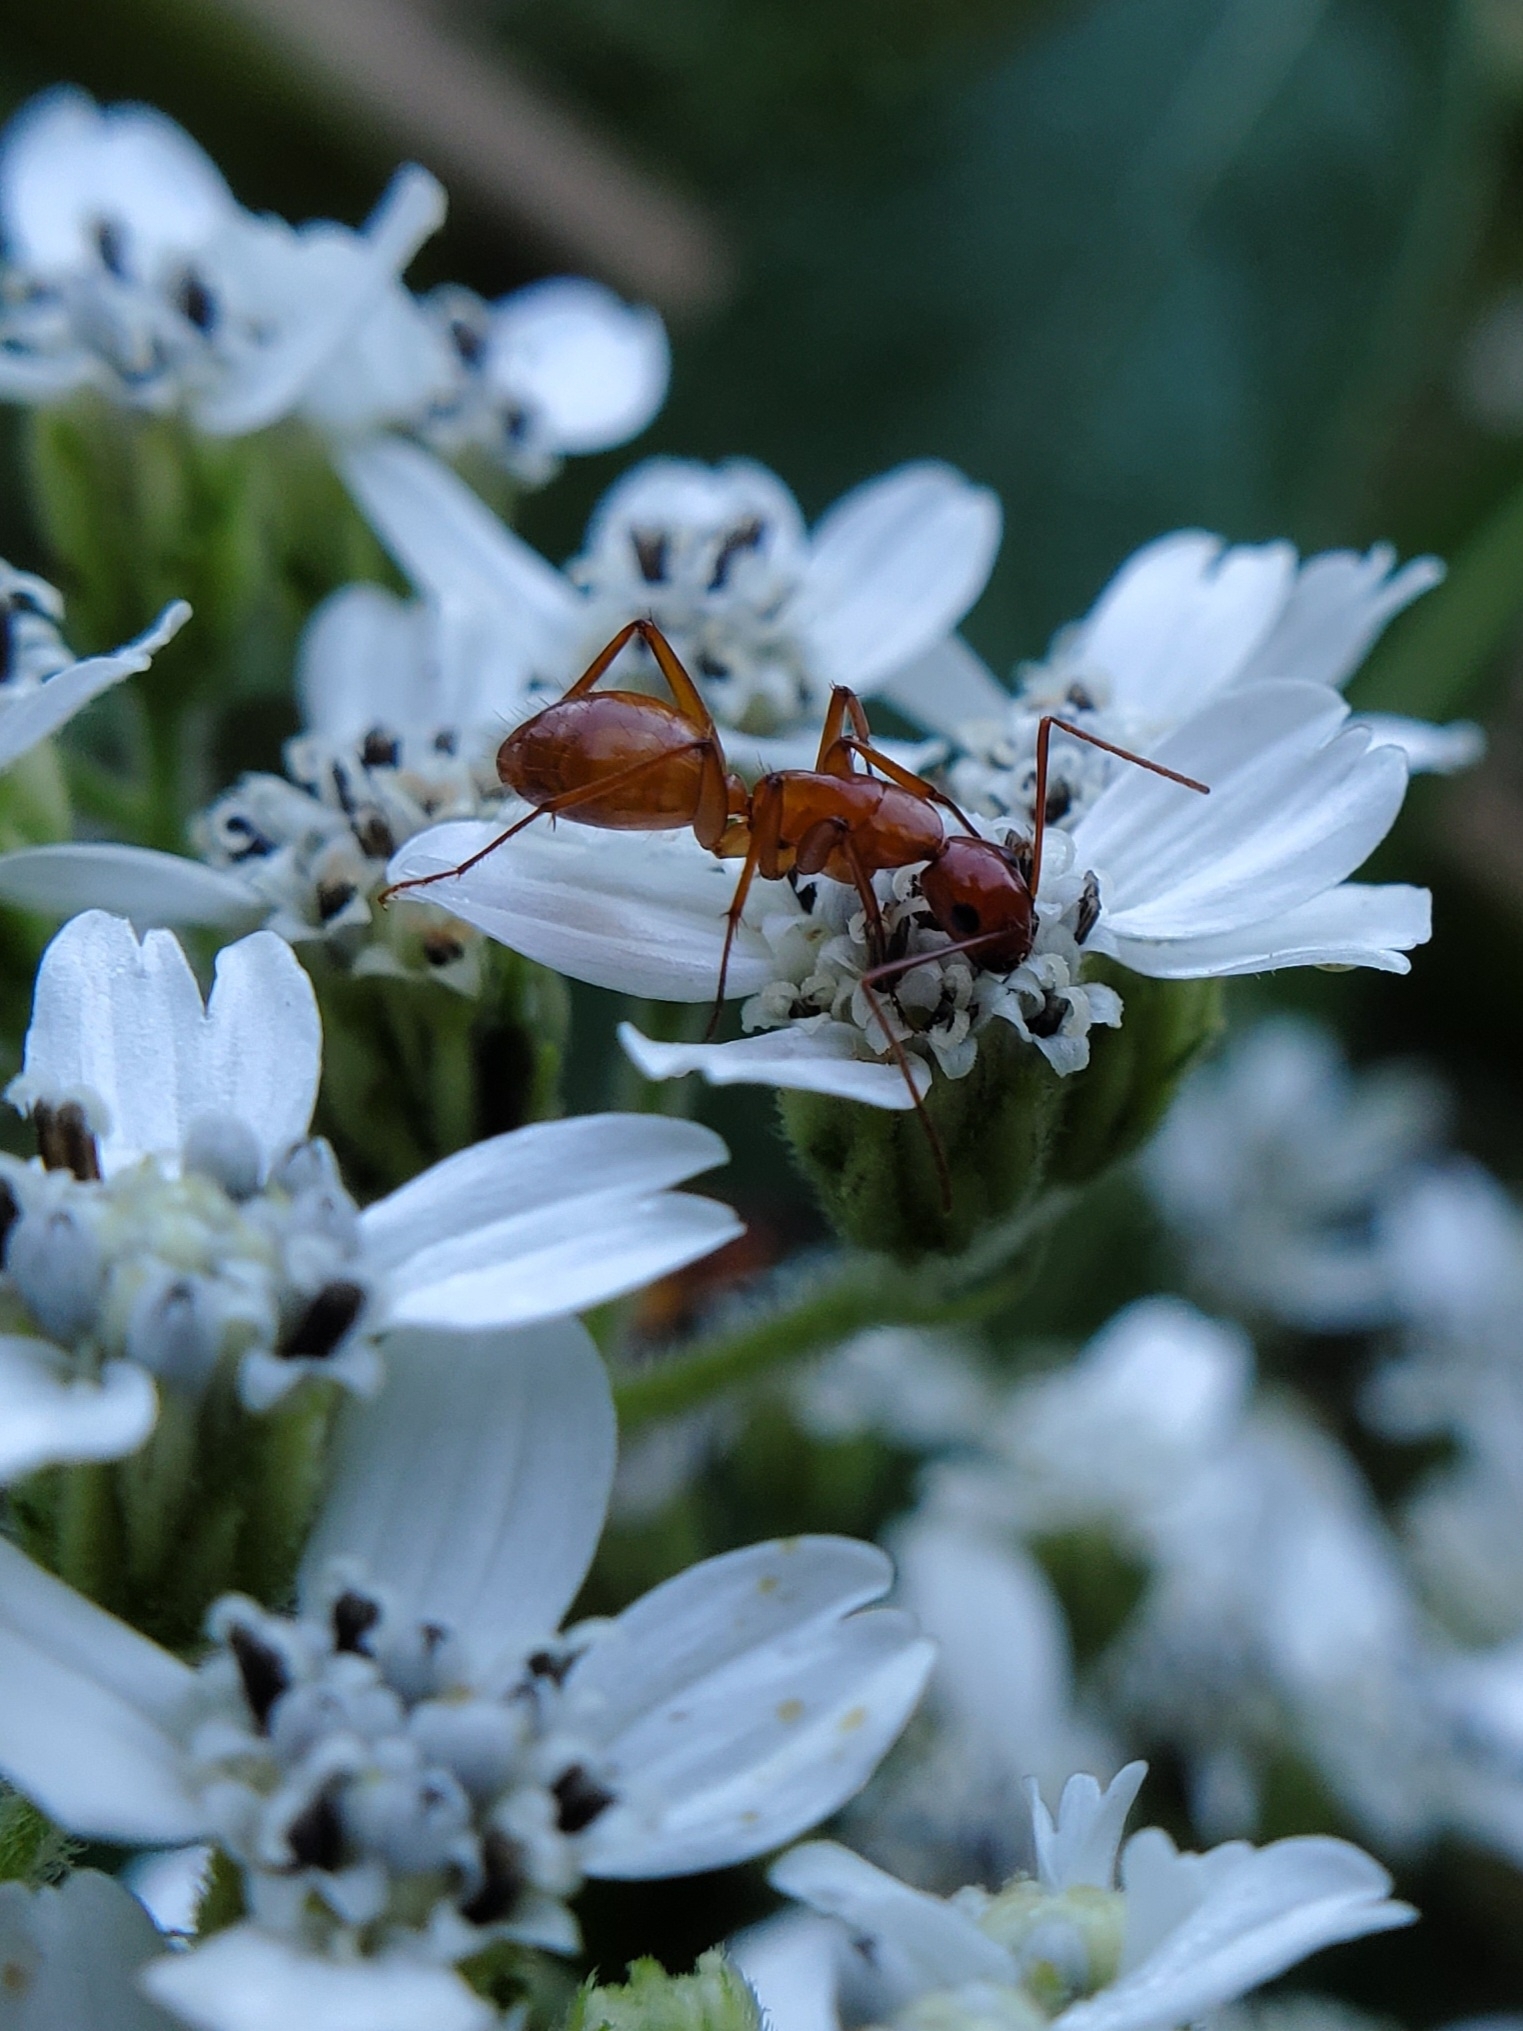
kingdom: Animalia
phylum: Arthropoda
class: Insecta
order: Hymenoptera
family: Formicidae
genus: Camponotus
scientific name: Camponotus castaneus
